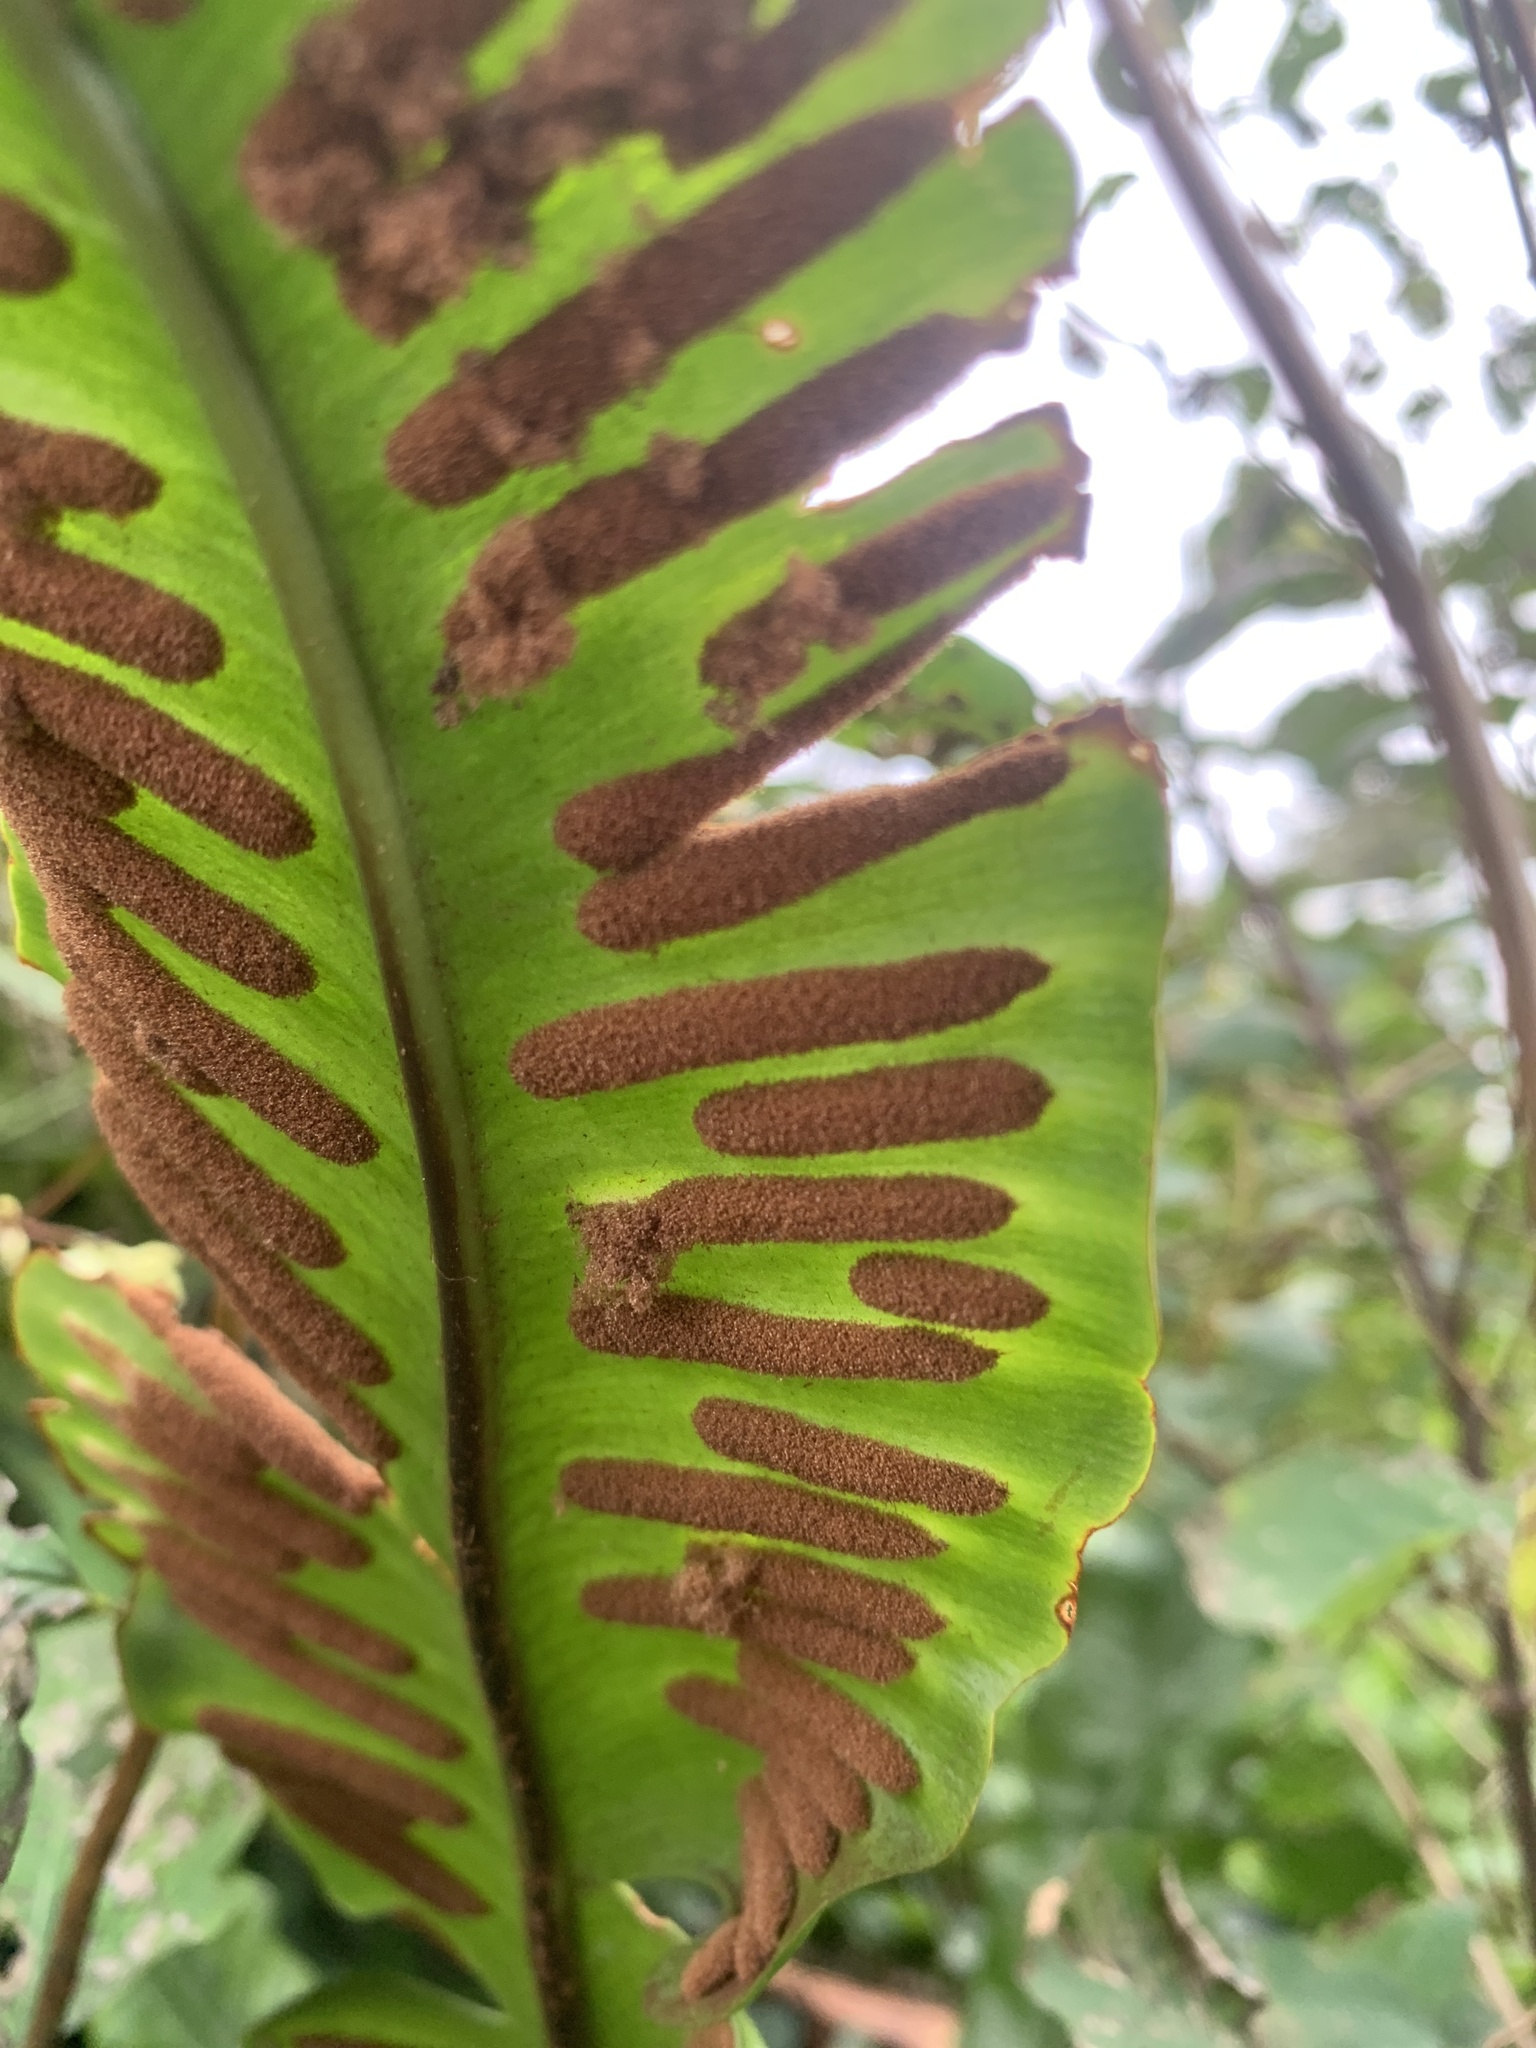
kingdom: Plantae
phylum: Tracheophyta
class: Polypodiopsida
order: Polypodiales
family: Aspleniaceae
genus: Asplenium
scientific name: Asplenium scolopendrium
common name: Hart's-tongue fern
